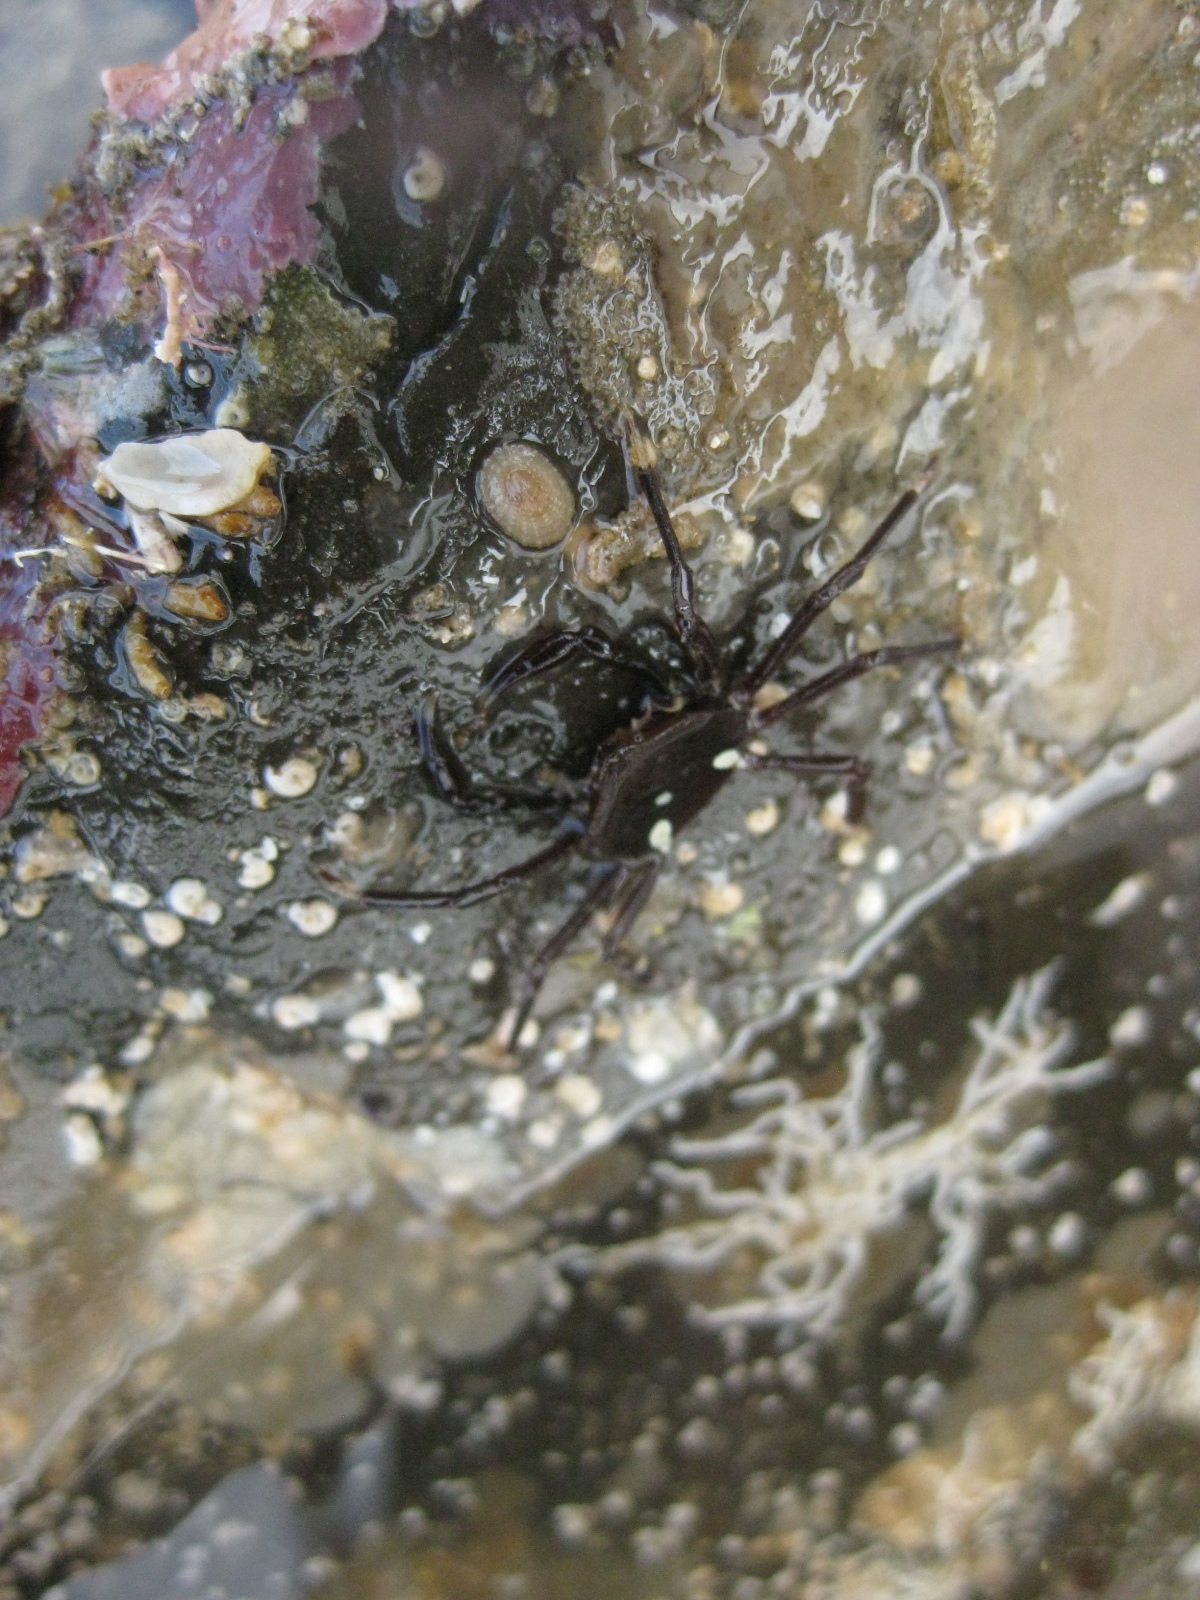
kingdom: Animalia
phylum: Arthropoda
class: Malacostraca
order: Decapoda
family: Hymenosomatidae
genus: Elamena
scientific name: Elamena producta
